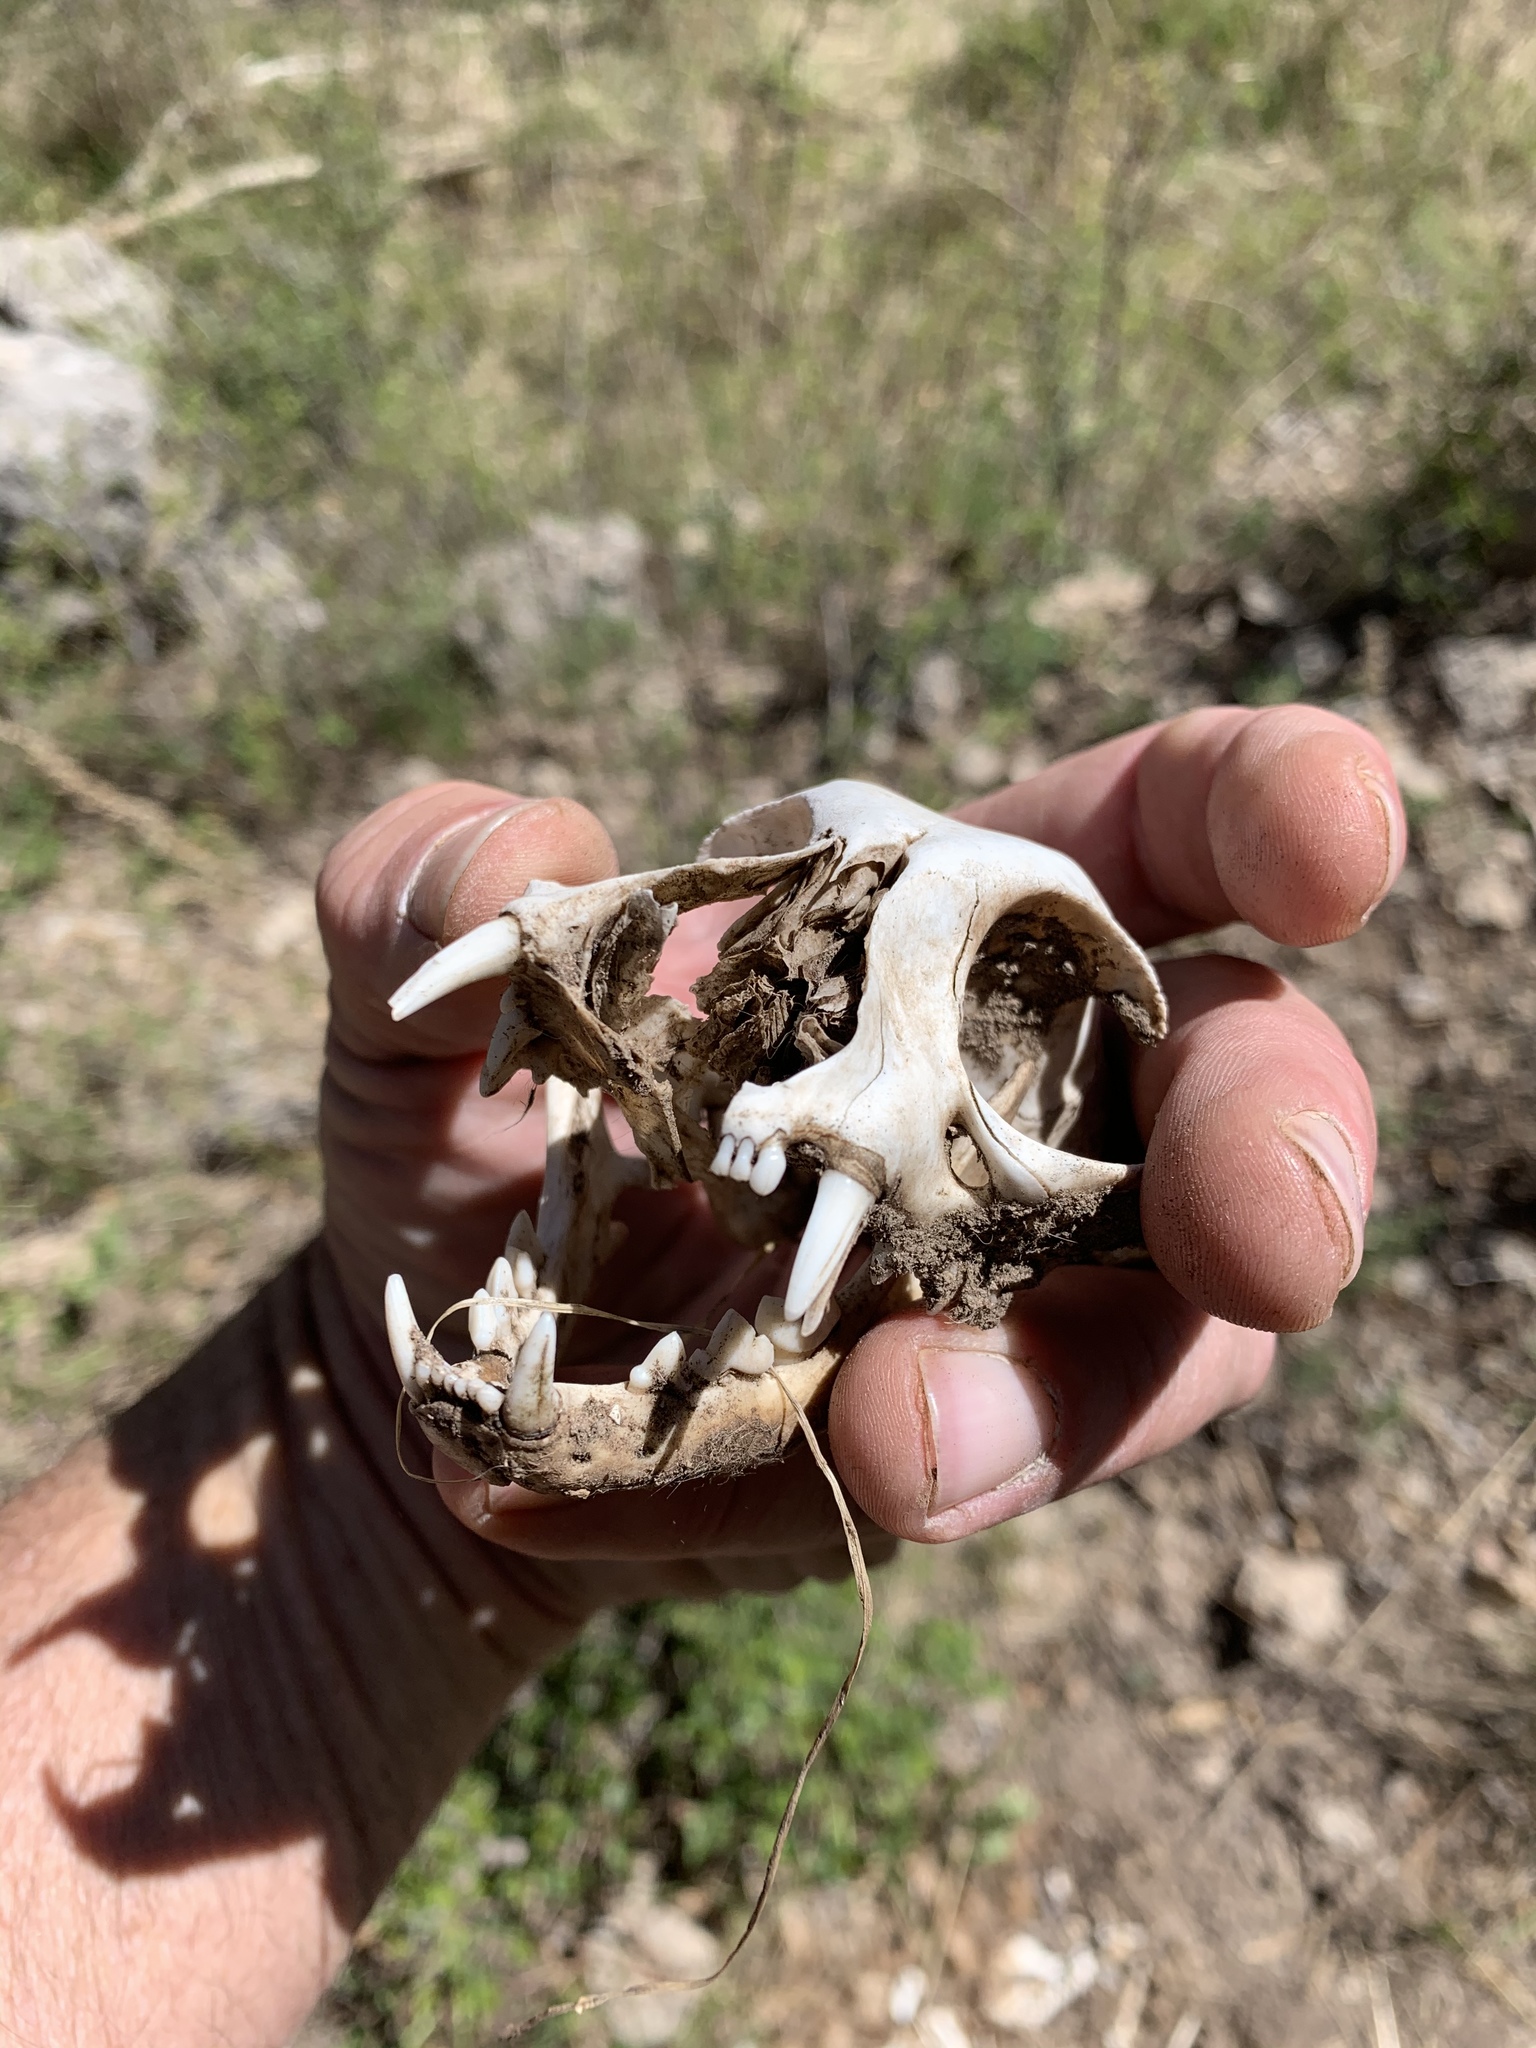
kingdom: Animalia
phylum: Chordata
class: Mammalia
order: Carnivora
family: Felidae
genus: Felis
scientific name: Felis catus
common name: Domestic cat
